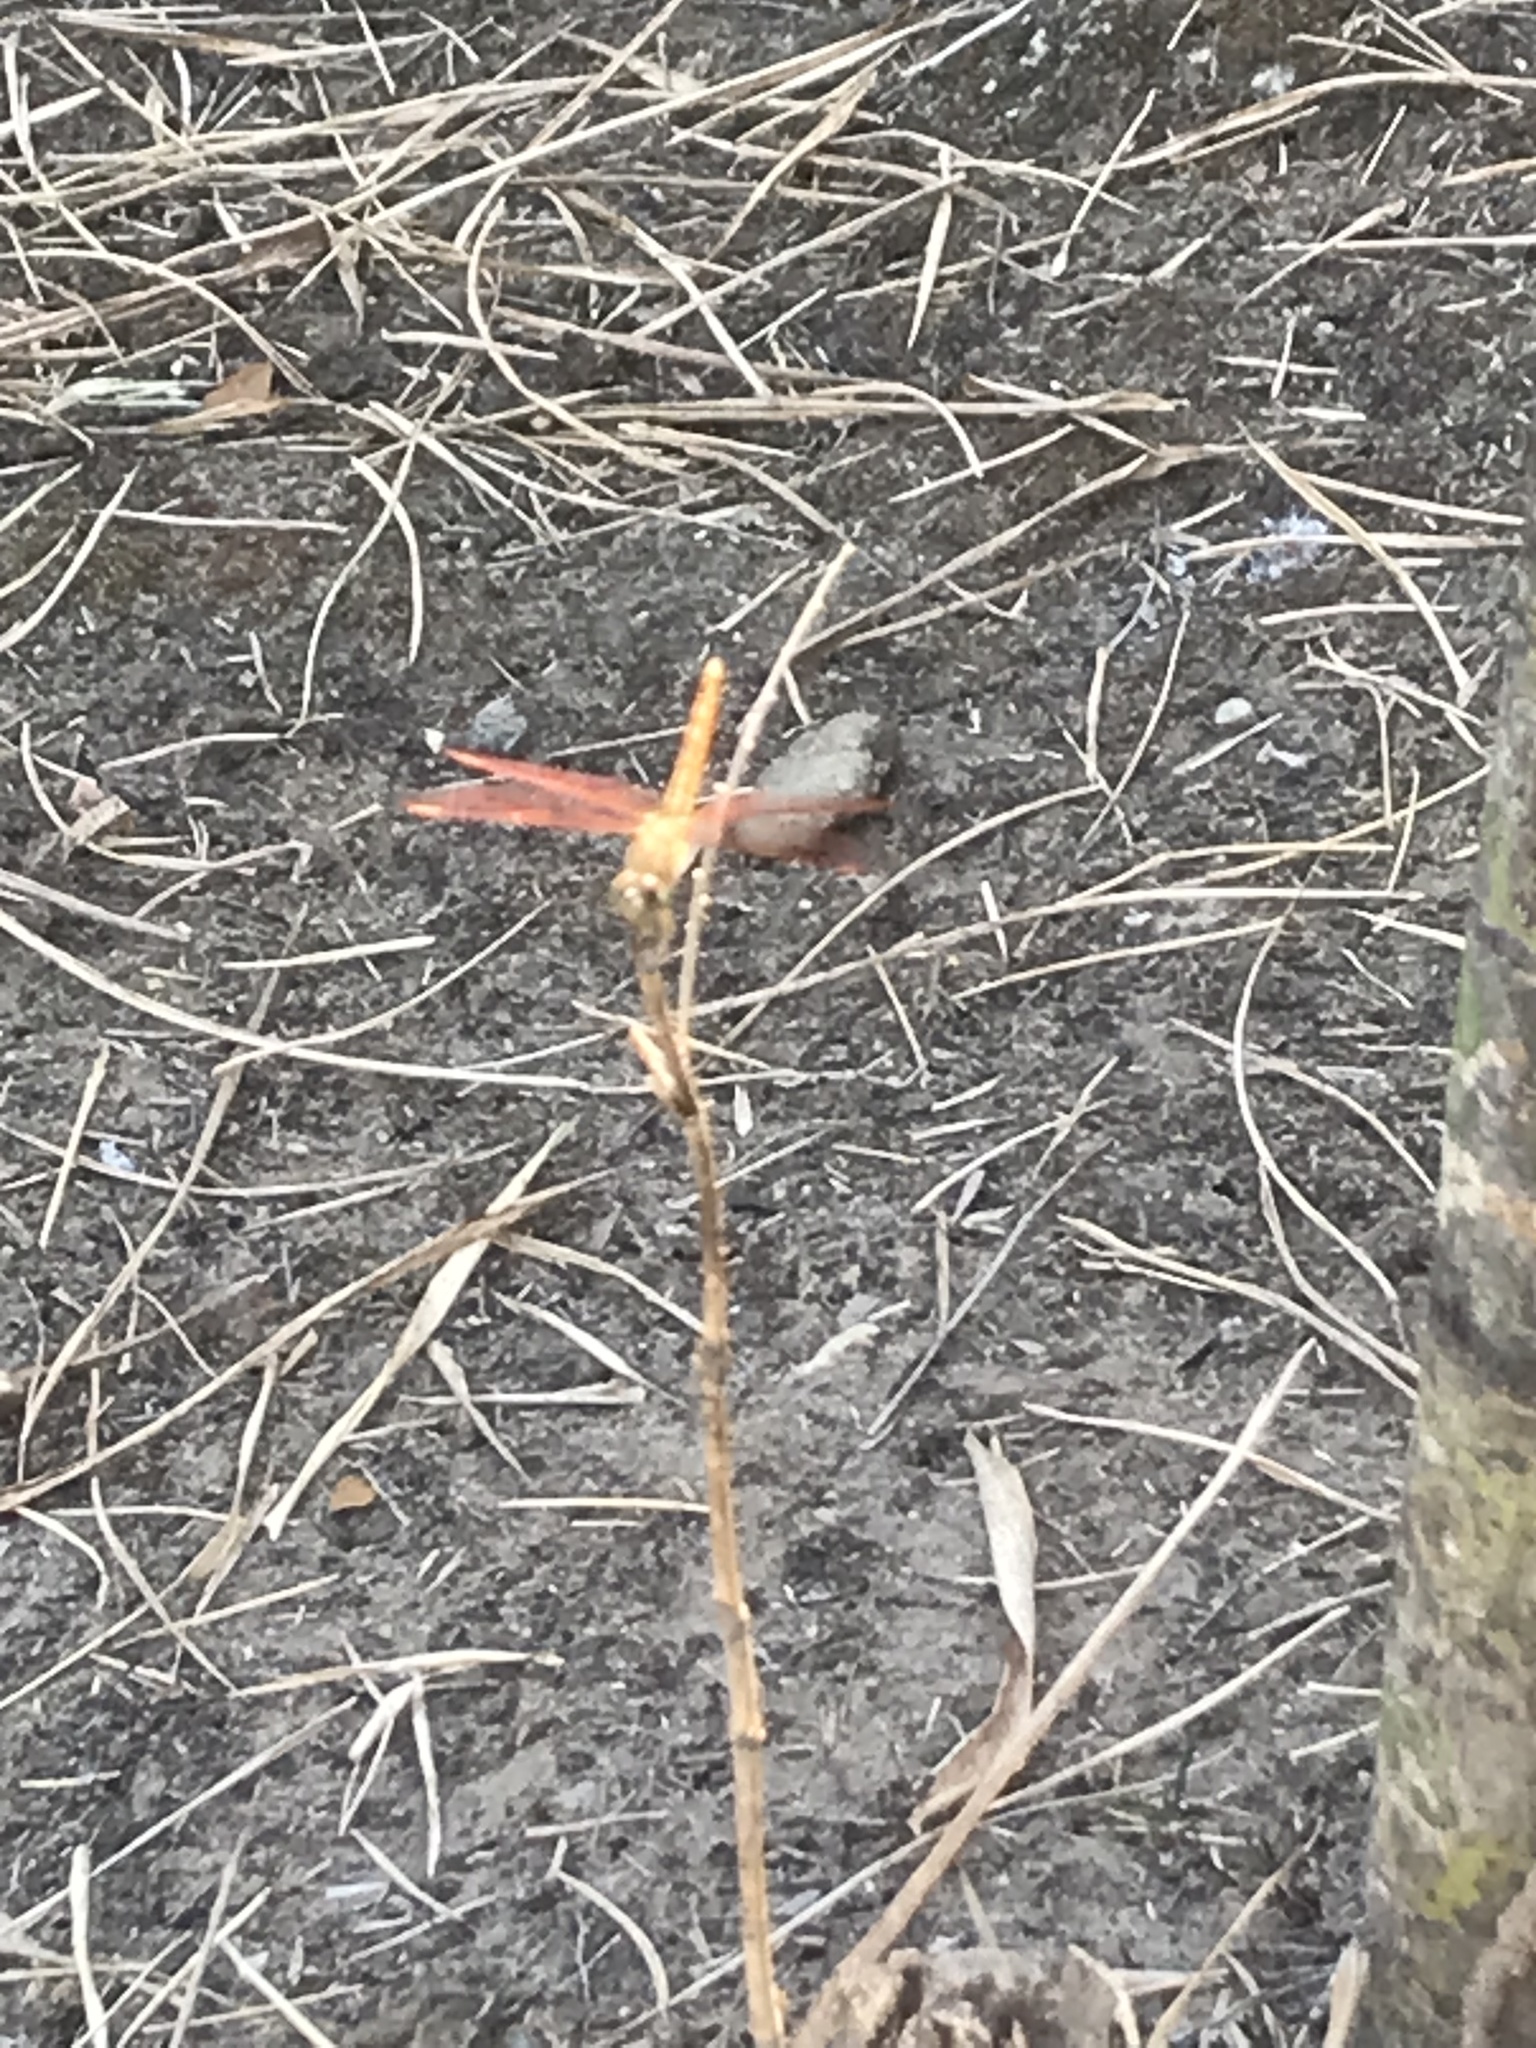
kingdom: Animalia
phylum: Arthropoda
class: Insecta
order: Odonata
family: Libellulidae
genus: Brachythemis
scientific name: Brachythemis contaminata
